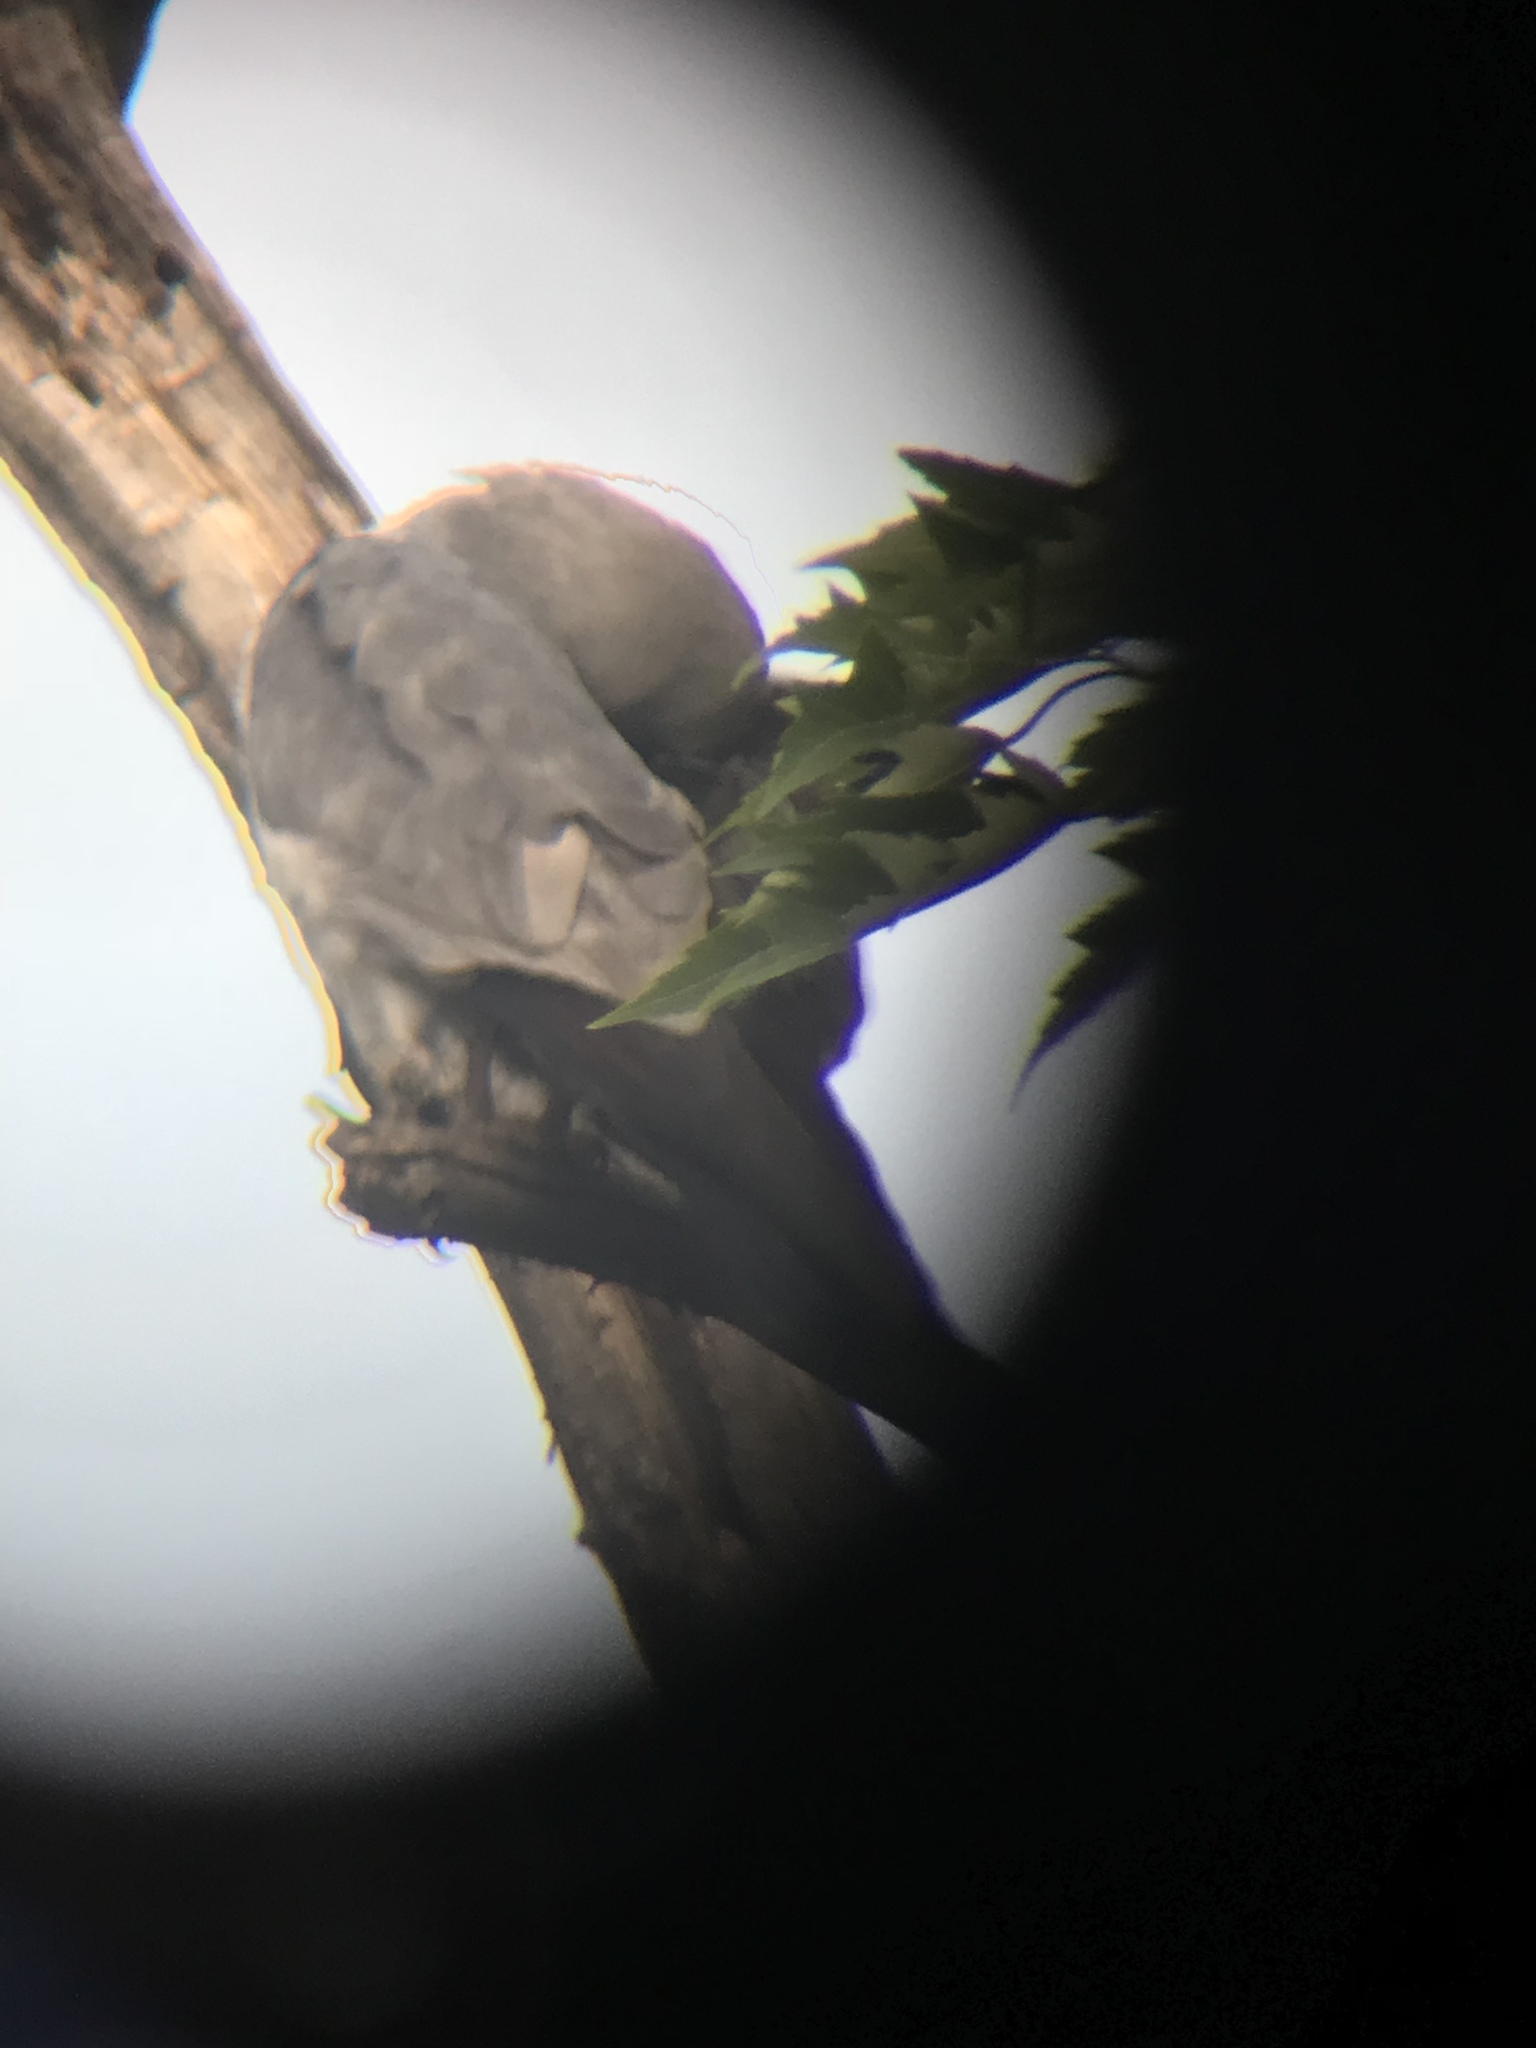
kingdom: Animalia
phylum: Chordata
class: Aves
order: Accipitriformes
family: Accipitridae
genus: Ictinia
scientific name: Ictinia mississippiensis
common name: Mississippi kite
